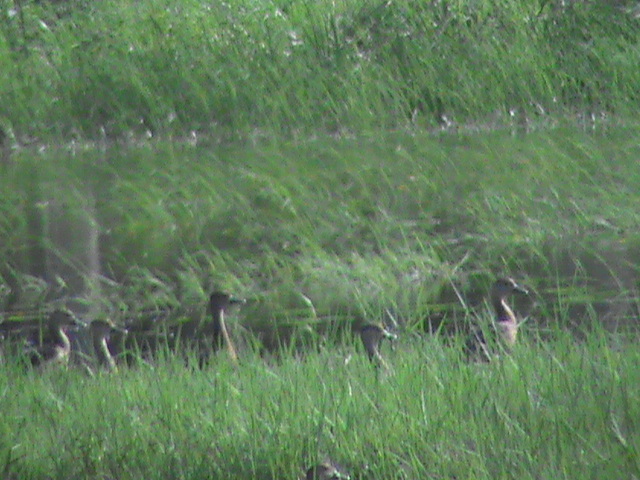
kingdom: Animalia
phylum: Chordata
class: Aves
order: Anseriformes
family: Anatidae
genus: Dendrocygna
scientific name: Dendrocygna javanica
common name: Lesser whistling-duck
